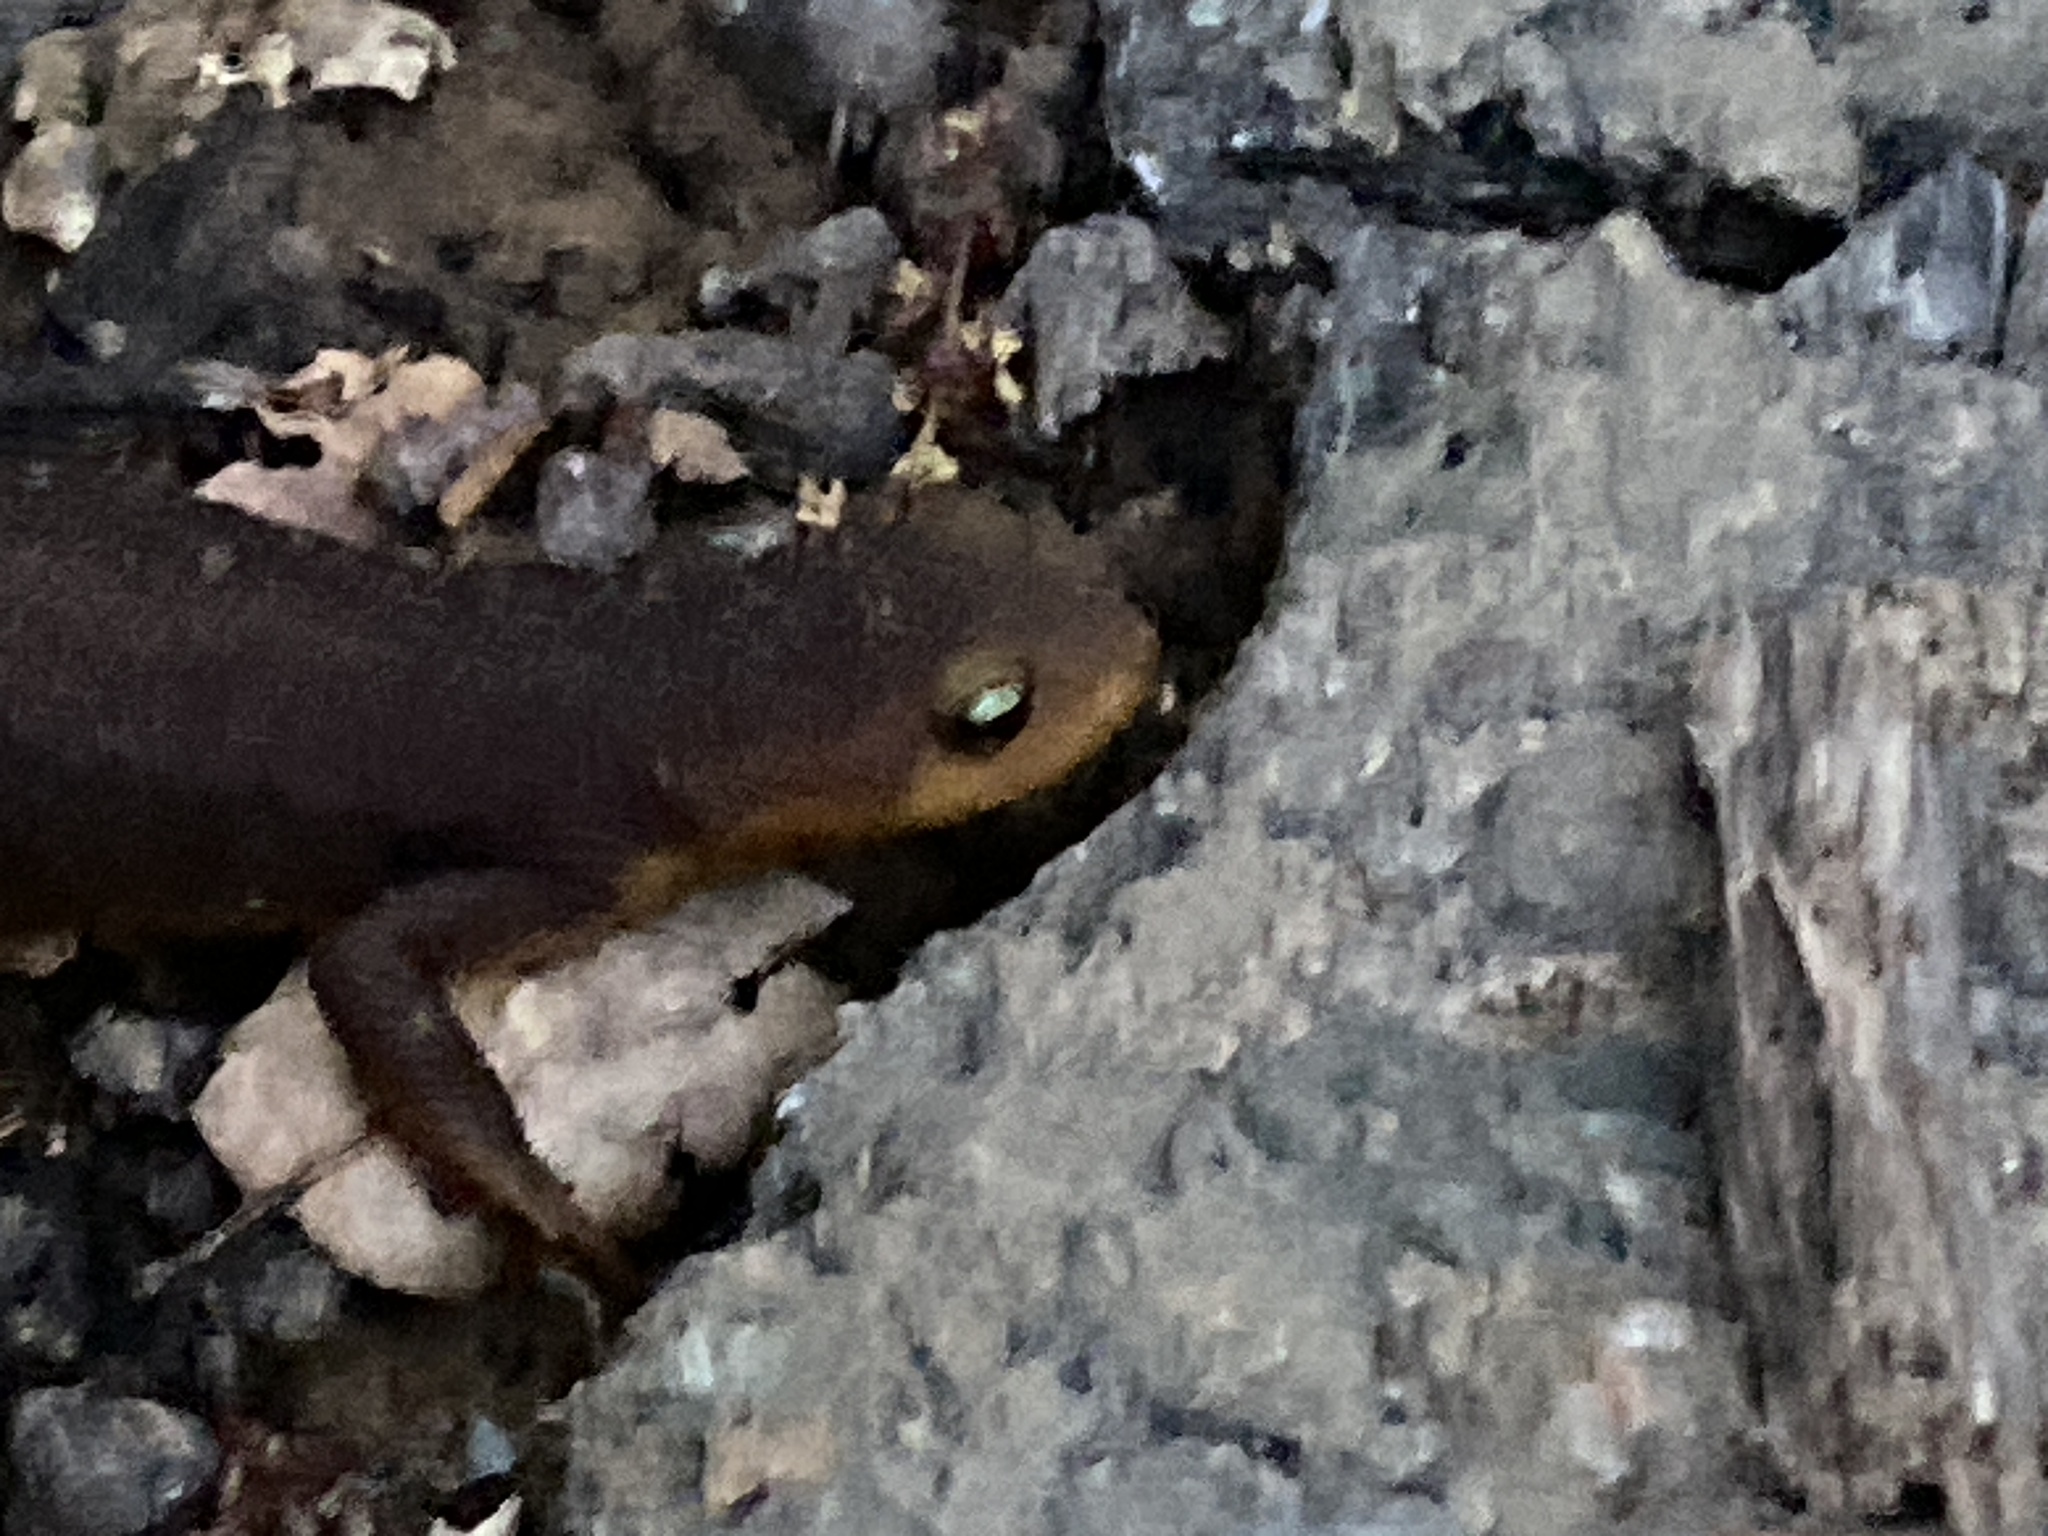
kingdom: Animalia
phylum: Chordata
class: Amphibia
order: Caudata
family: Salamandridae
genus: Taricha
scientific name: Taricha torosa
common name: California newt
